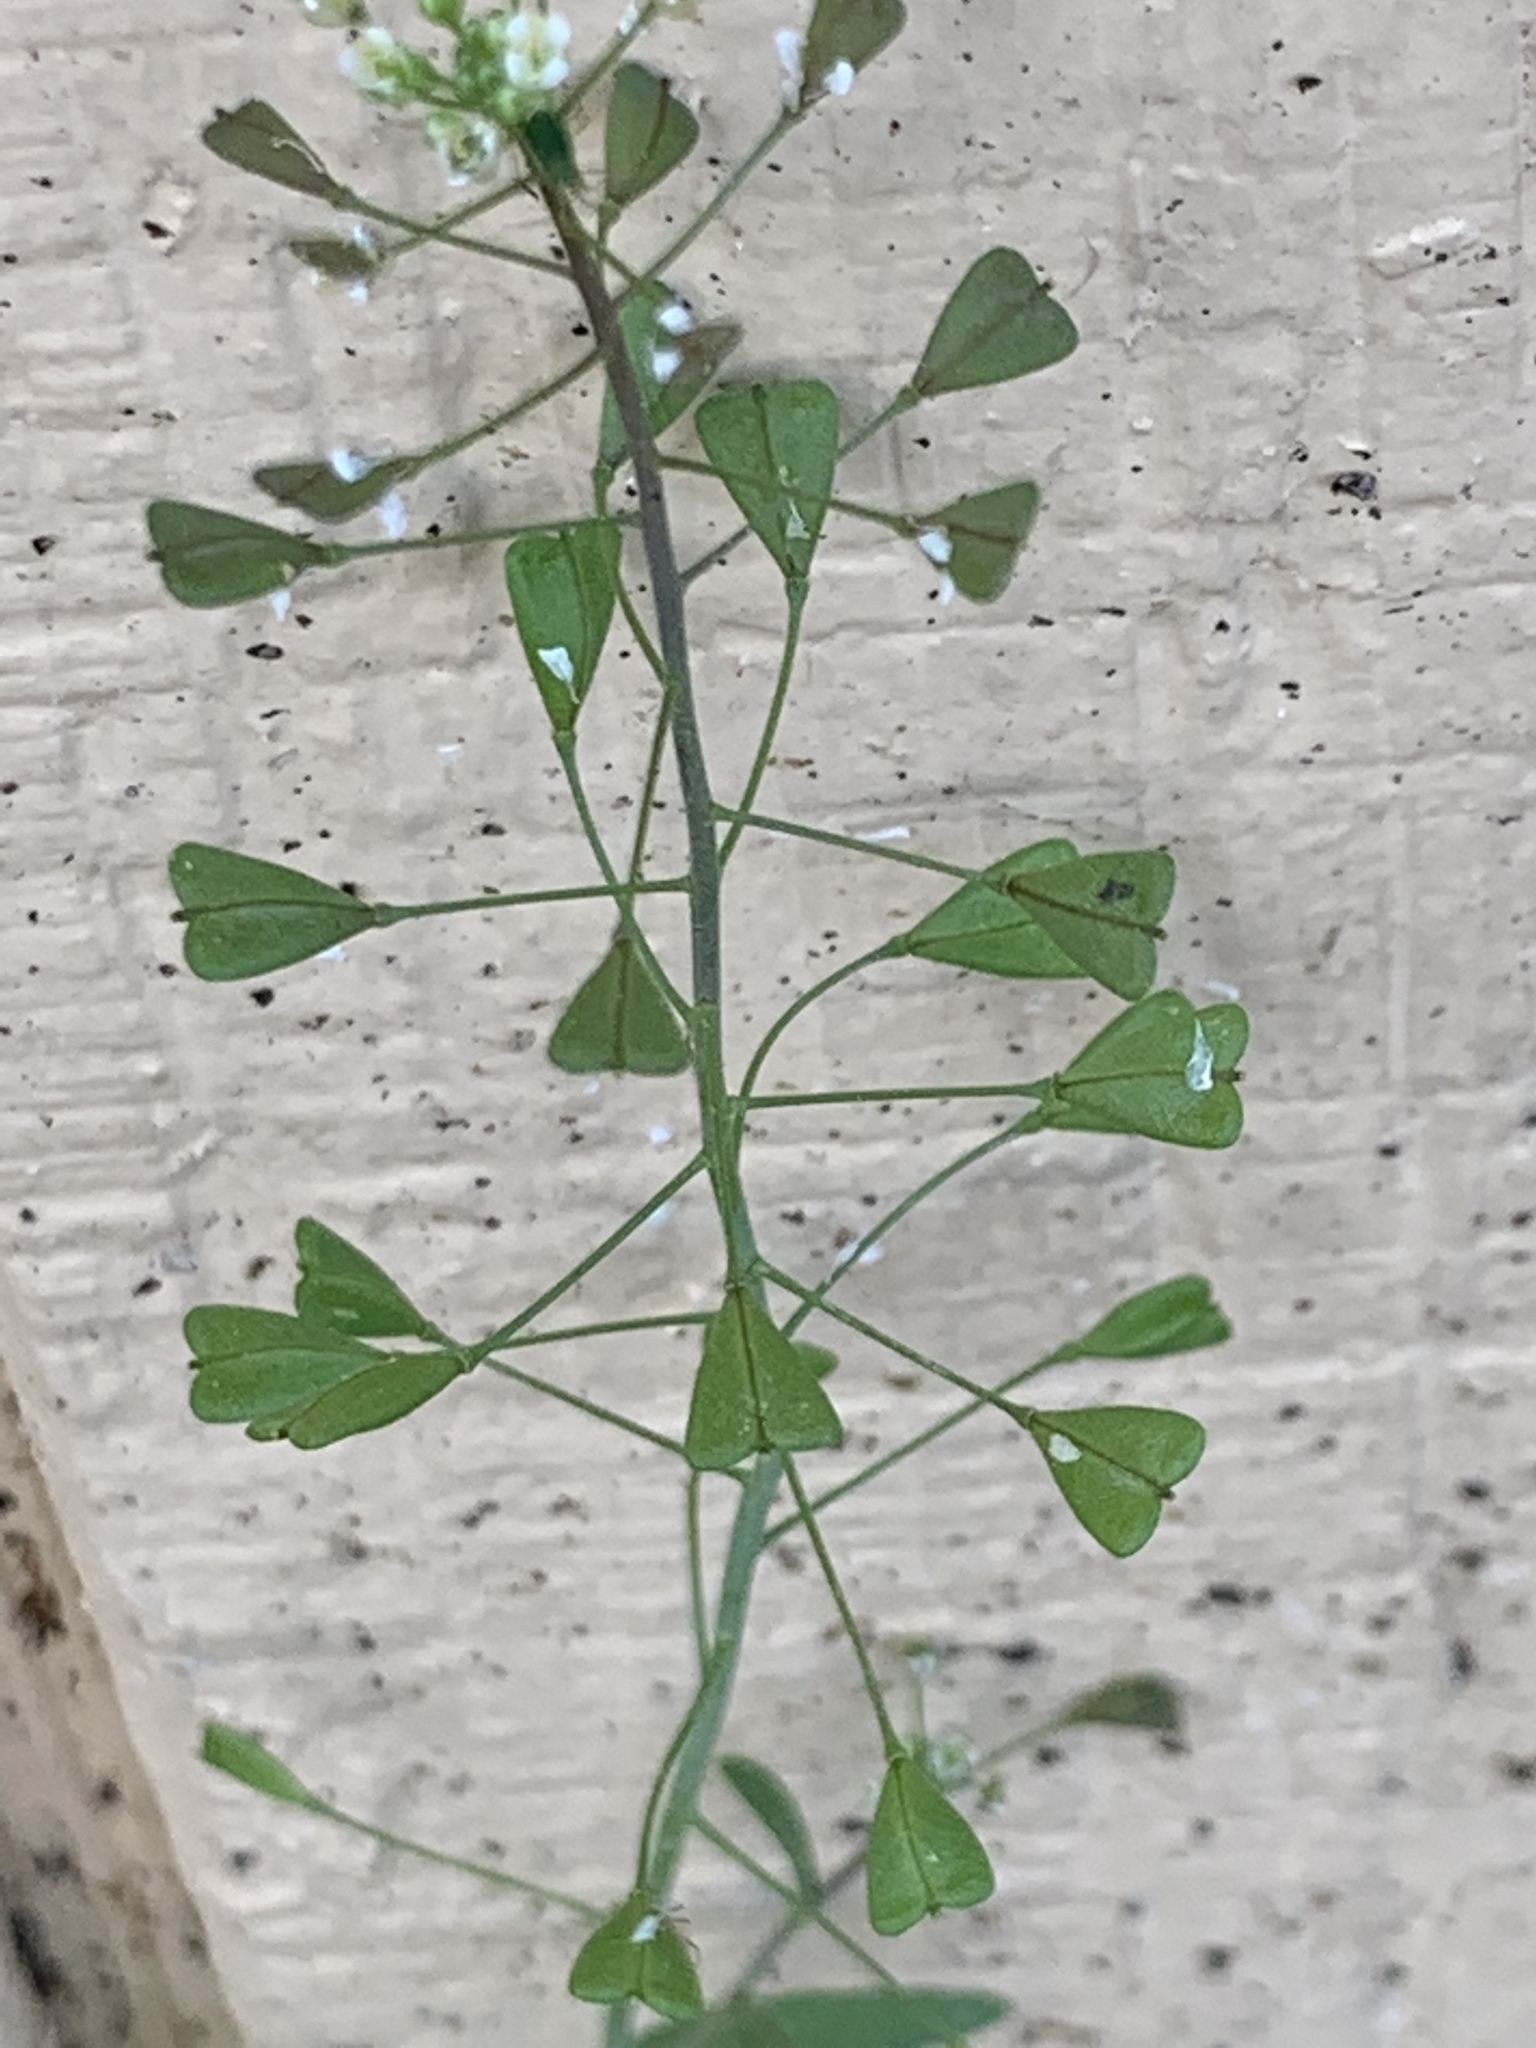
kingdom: Plantae
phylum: Tracheophyta
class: Magnoliopsida
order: Brassicales
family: Brassicaceae
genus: Capsella
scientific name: Capsella bursa-pastoris
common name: Shepherd's purse
